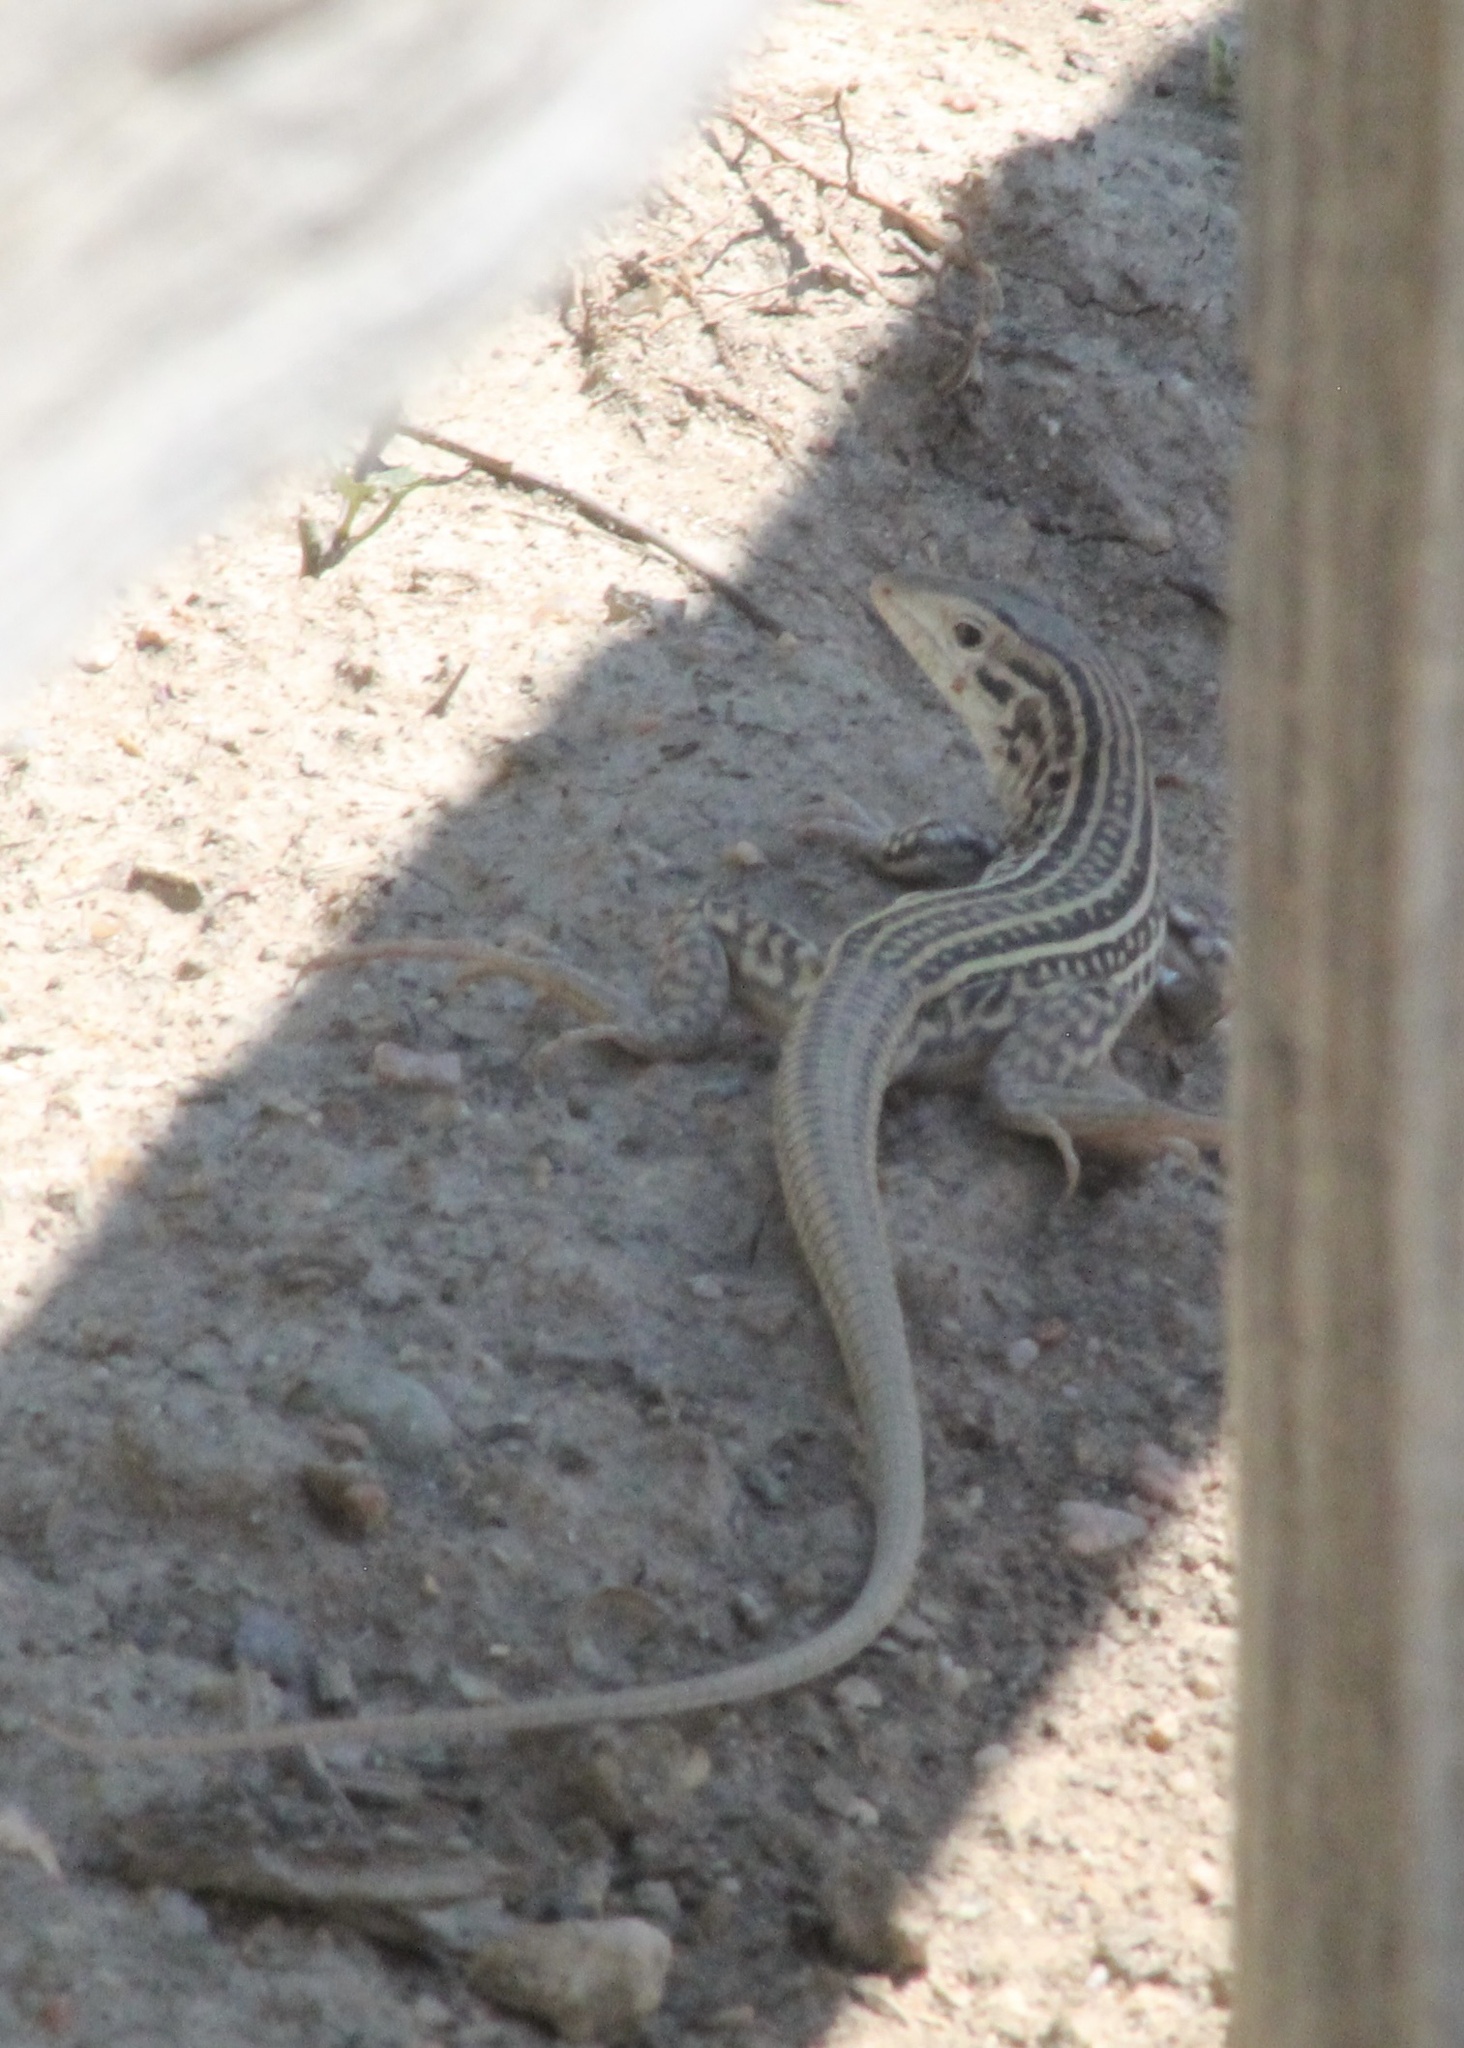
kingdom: Animalia
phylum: Chordata
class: Squamata
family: Teiidae
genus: Aspidoscelis
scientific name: Aspidoscelis neotesselatus
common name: Colorado checkered whiptail
